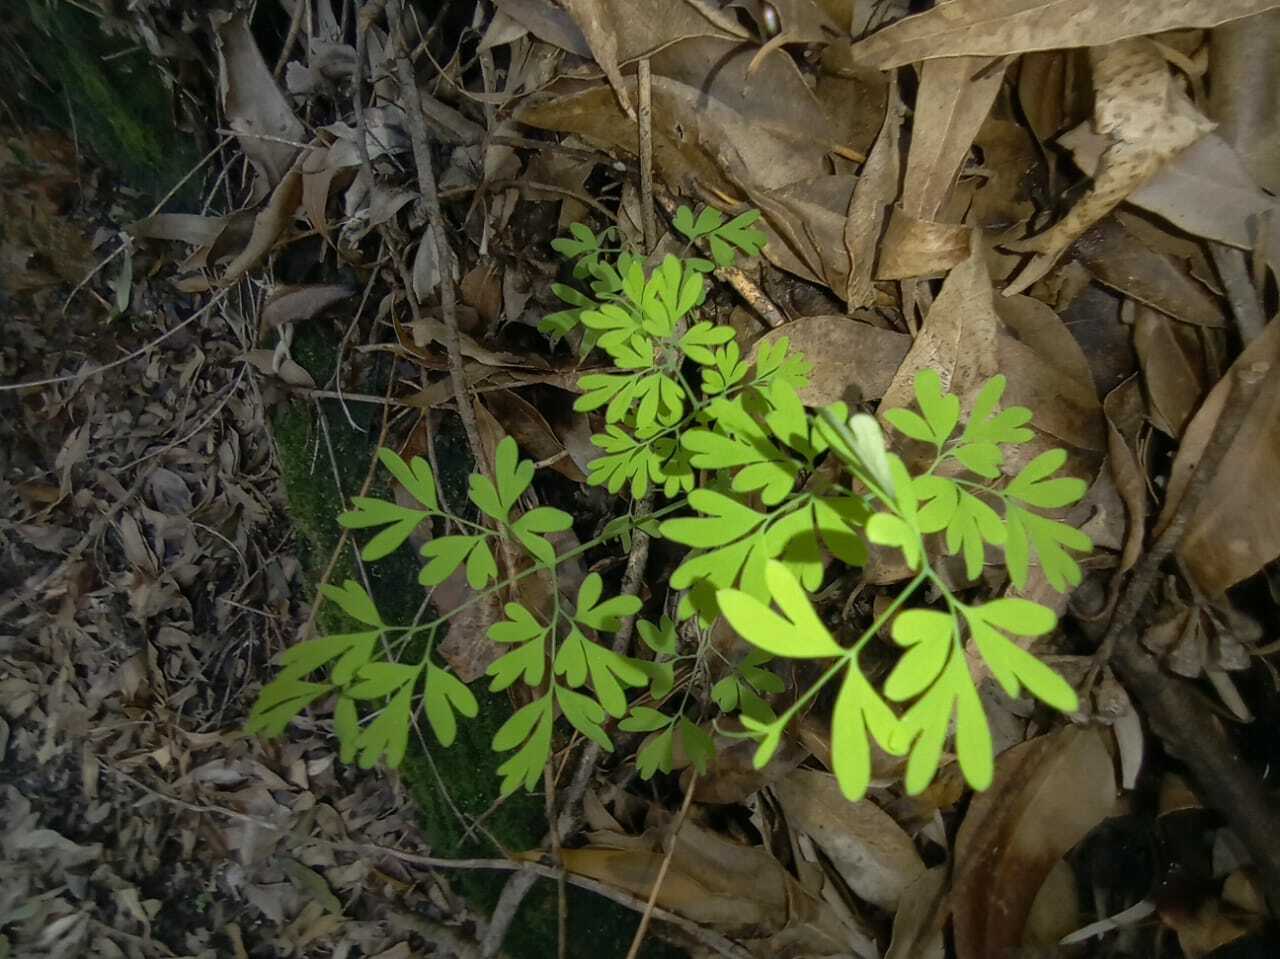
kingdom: Plantae
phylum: Tracheophyta
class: Magnoliopsida
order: Ranunculales
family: Papaveraceae
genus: Discocapnos
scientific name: Discocapnos mundti
